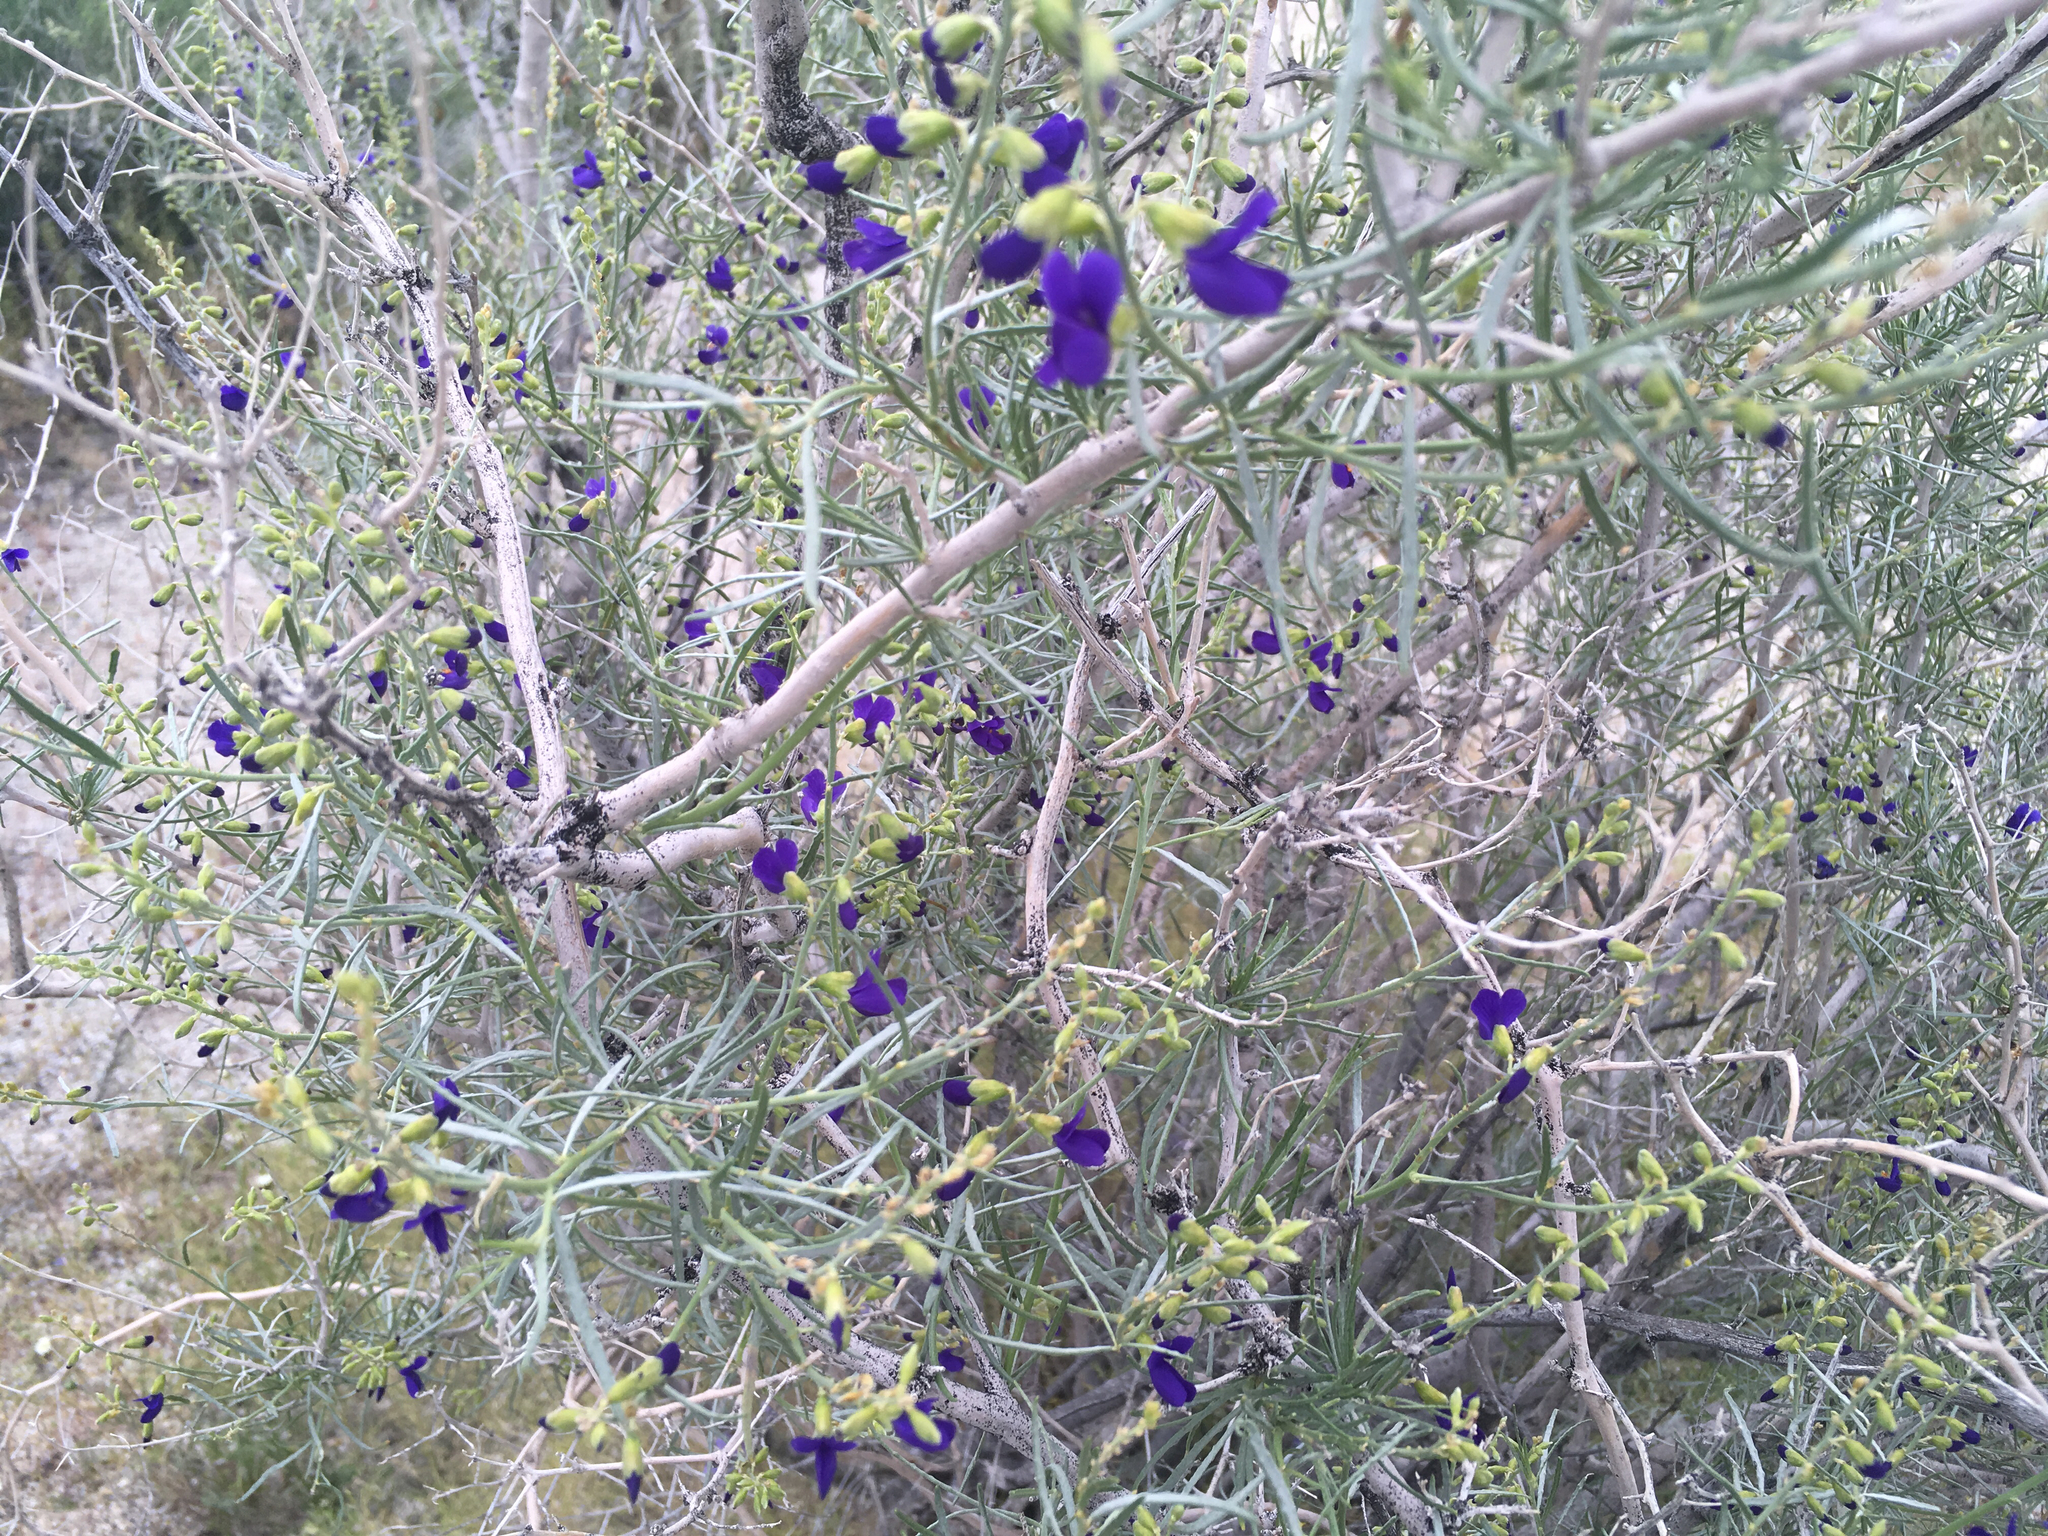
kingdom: Plantae
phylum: Tracheophyta
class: Magnoliopsida
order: Fabales
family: Fabaceae
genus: Psorothamnus
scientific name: Psorothamnus schottii
